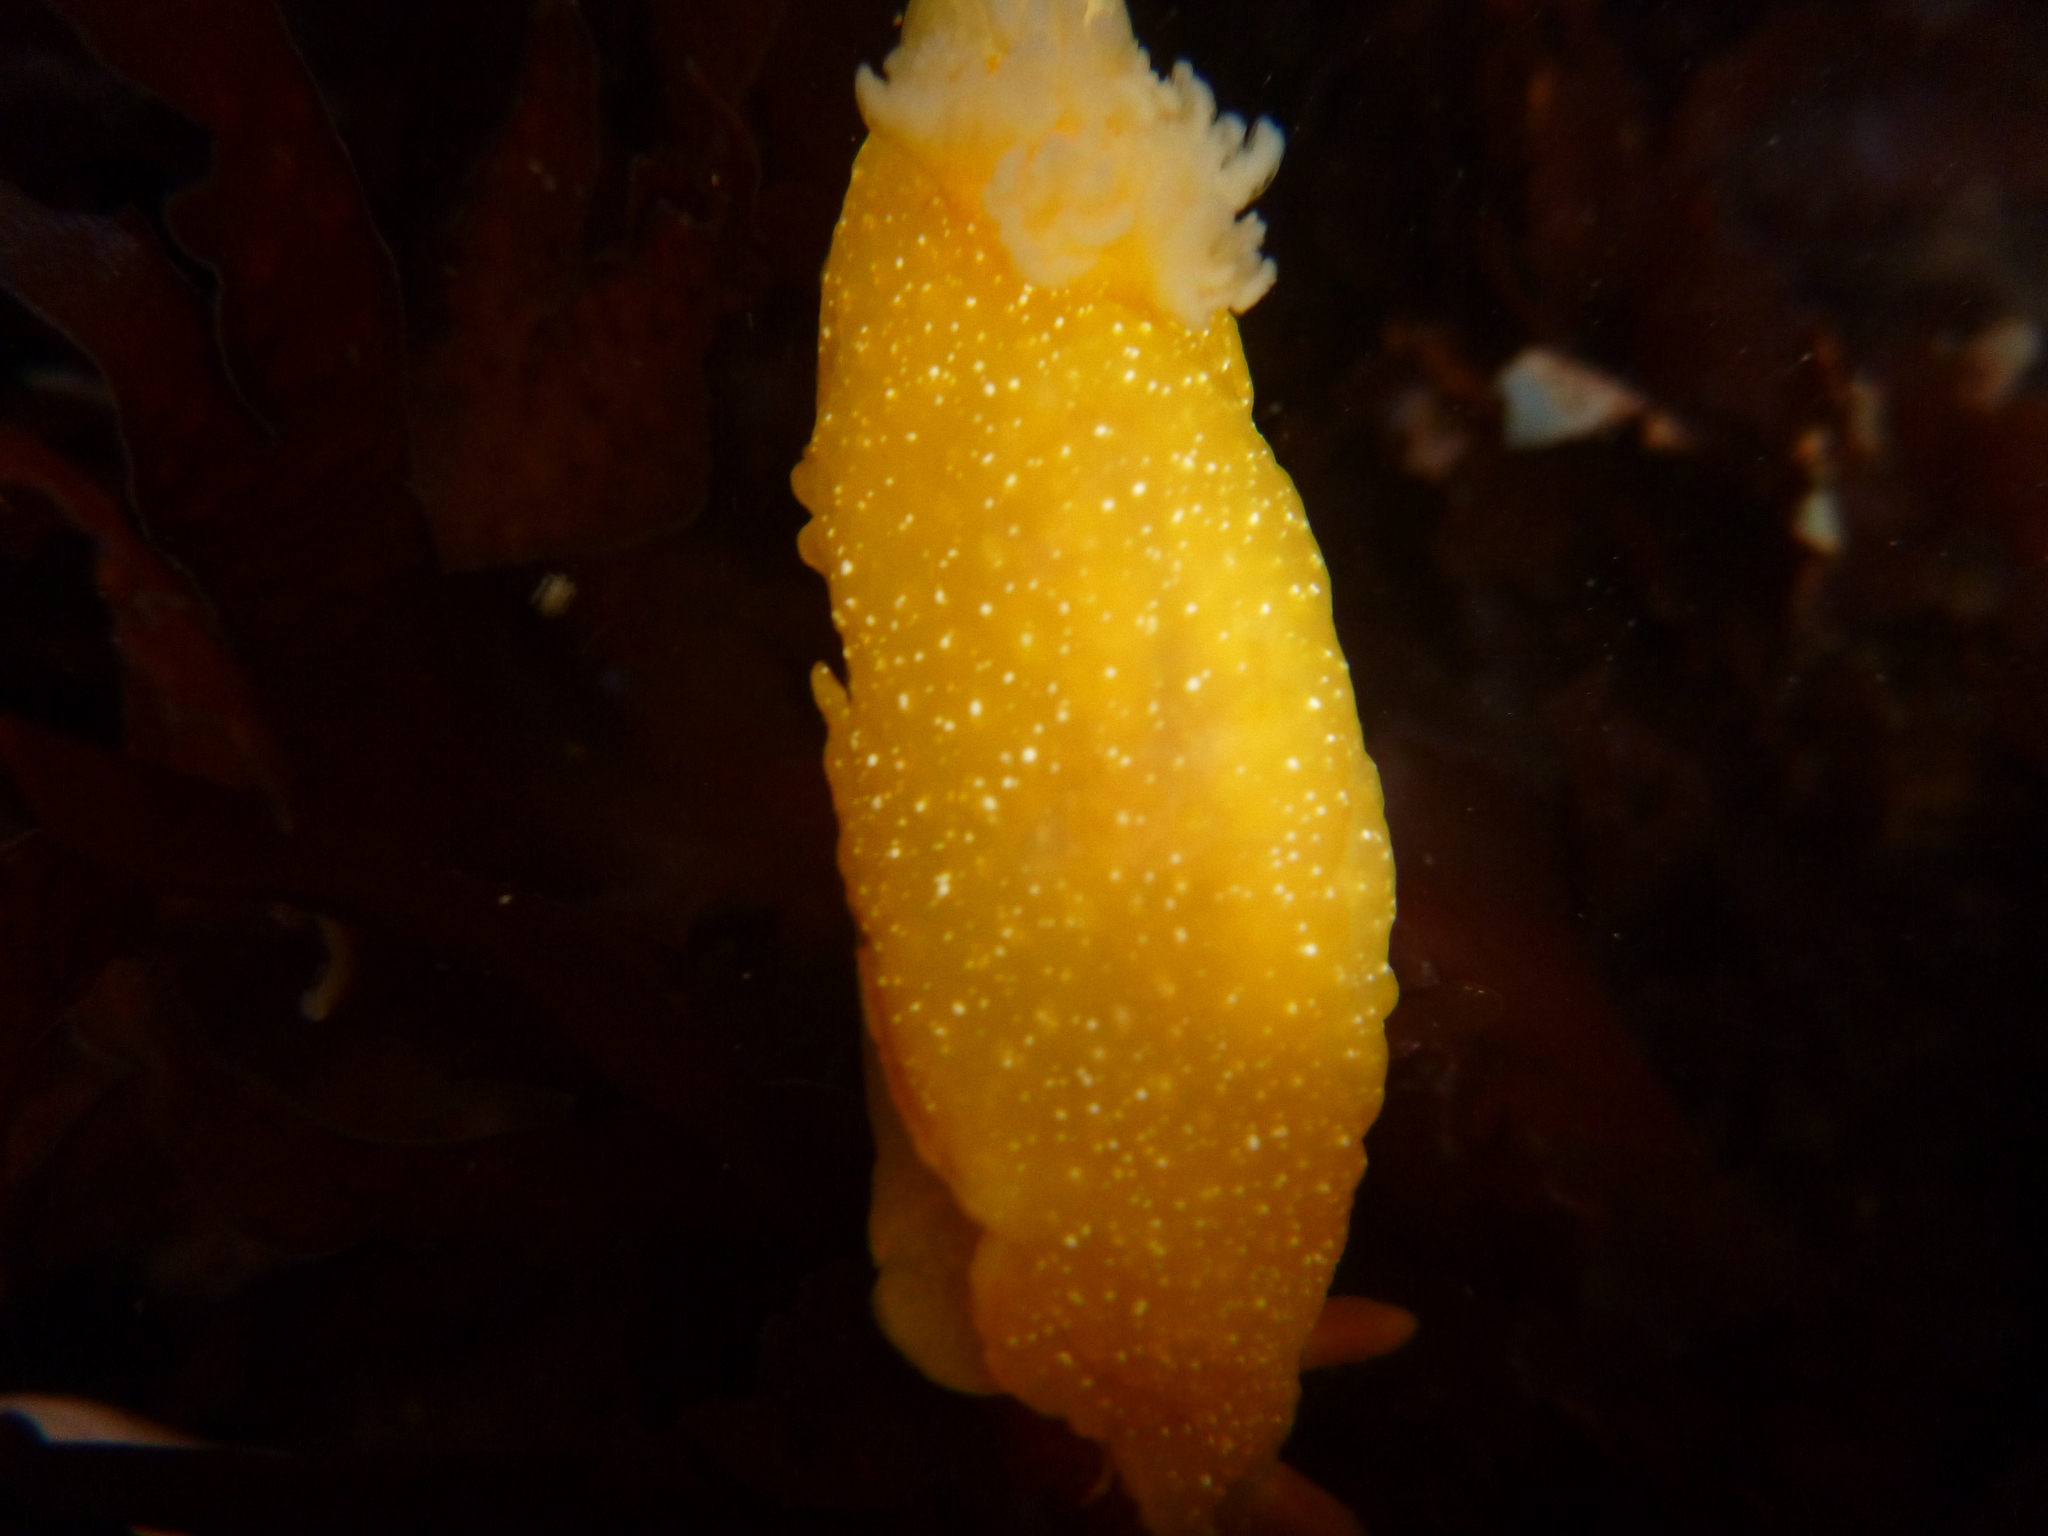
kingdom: Animalia
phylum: Mollusca
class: Gastropoda
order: Nudibranchia
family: Dendrodorididae
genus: Doriopsilla
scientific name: Doriopsilla fulva
